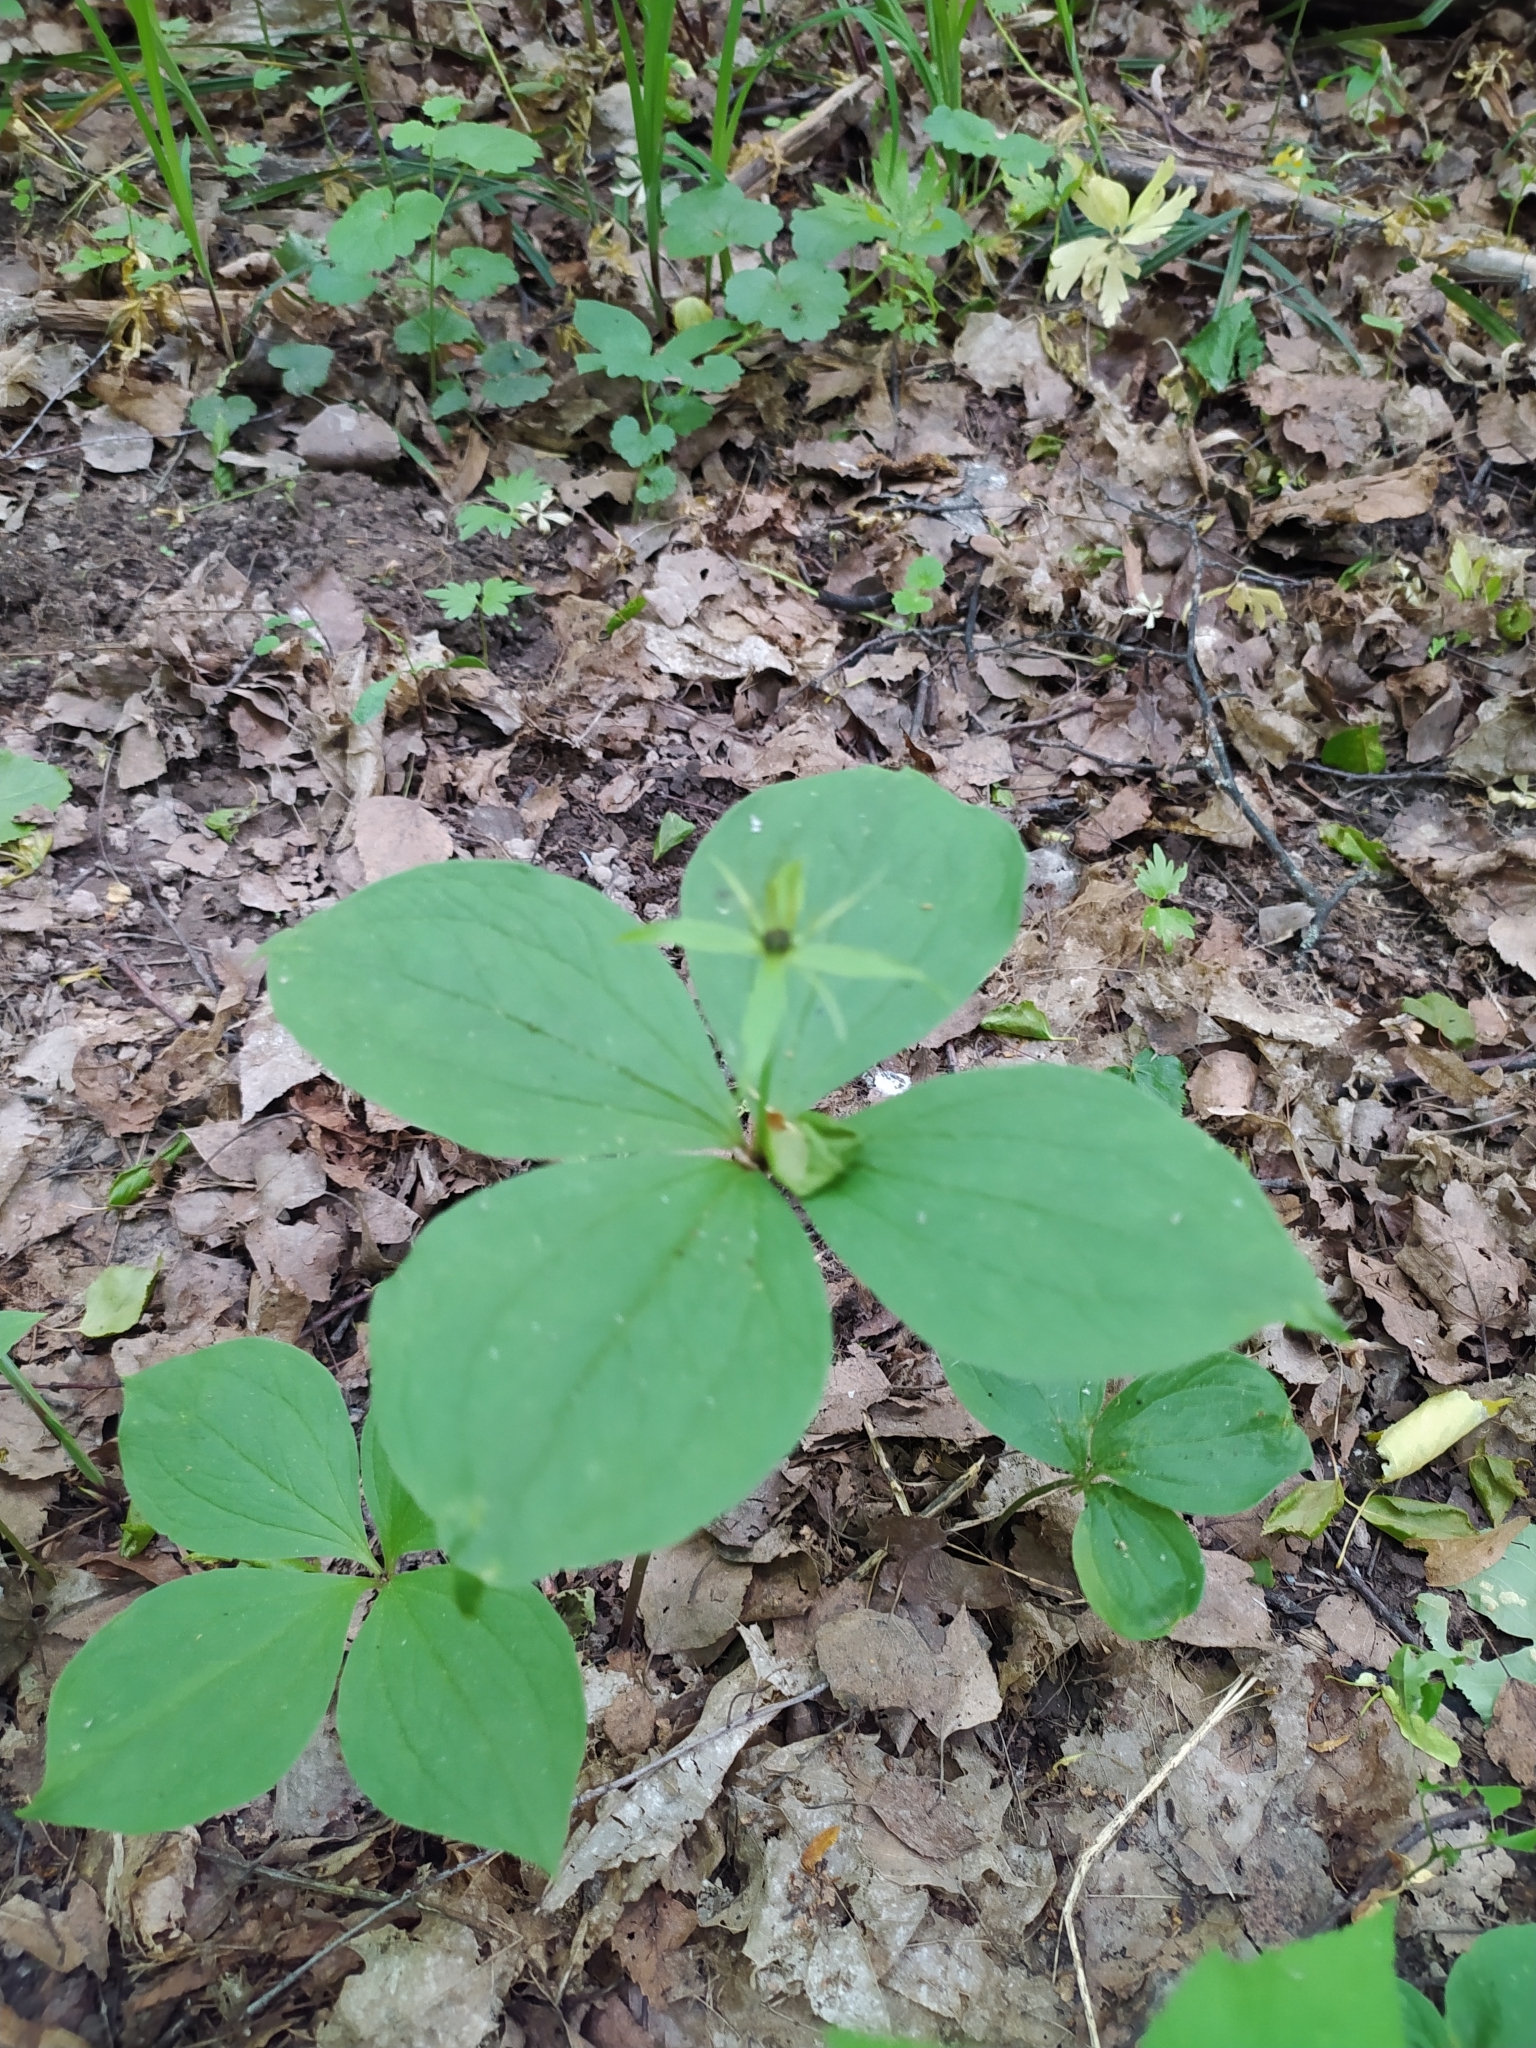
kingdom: Plantae
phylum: Tracheophyta
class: Liliopsida
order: Liliales
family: Melanthiaceae
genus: Paris
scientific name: Paris quadrifolia
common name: Herb-paris
